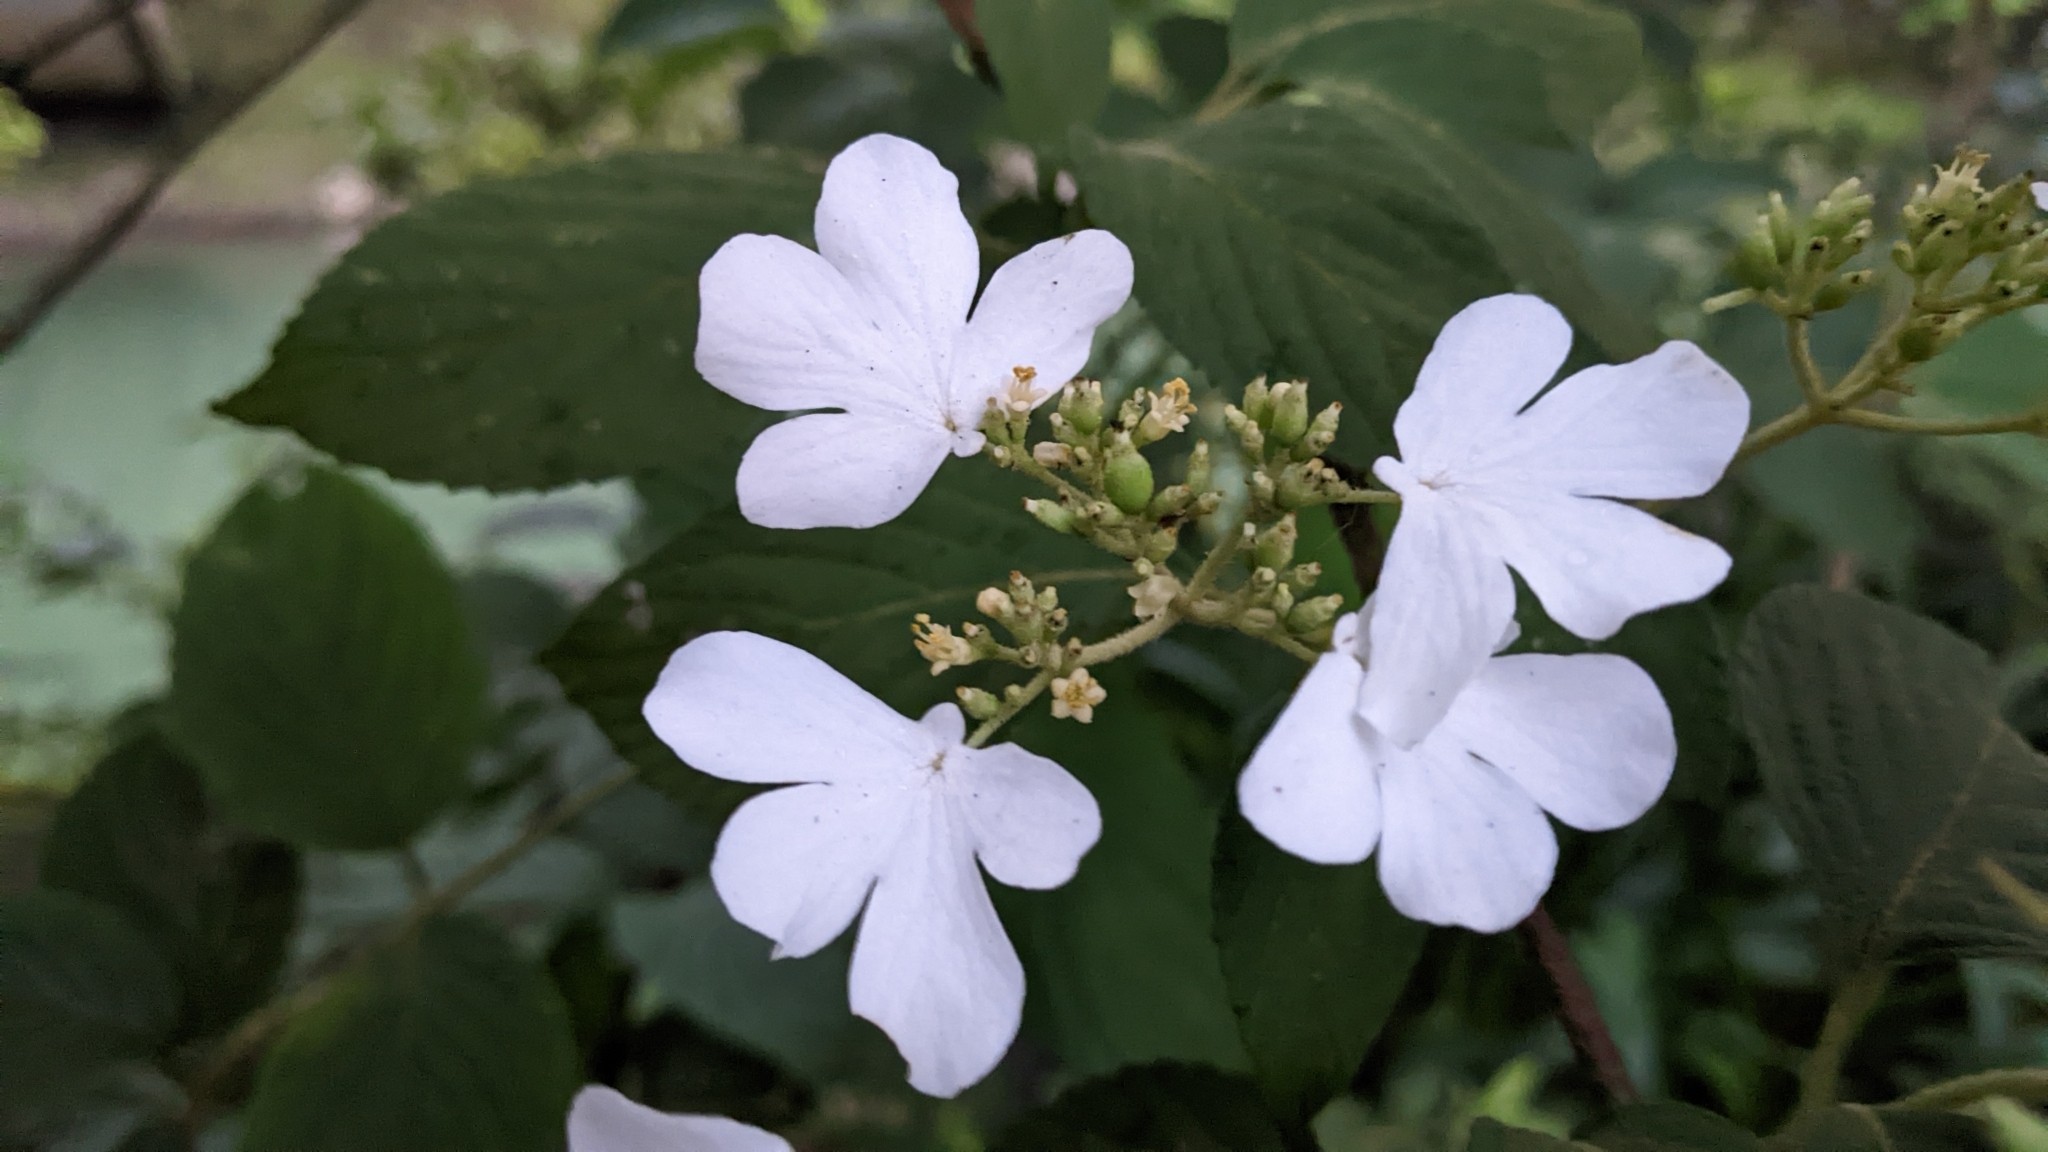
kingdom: Plantae
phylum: Tracheophyta
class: Magnoliopsida
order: Dipsacales
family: Viburnaceae
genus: Viburnum
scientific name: Viburnum plicatum
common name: Japanese snowball
